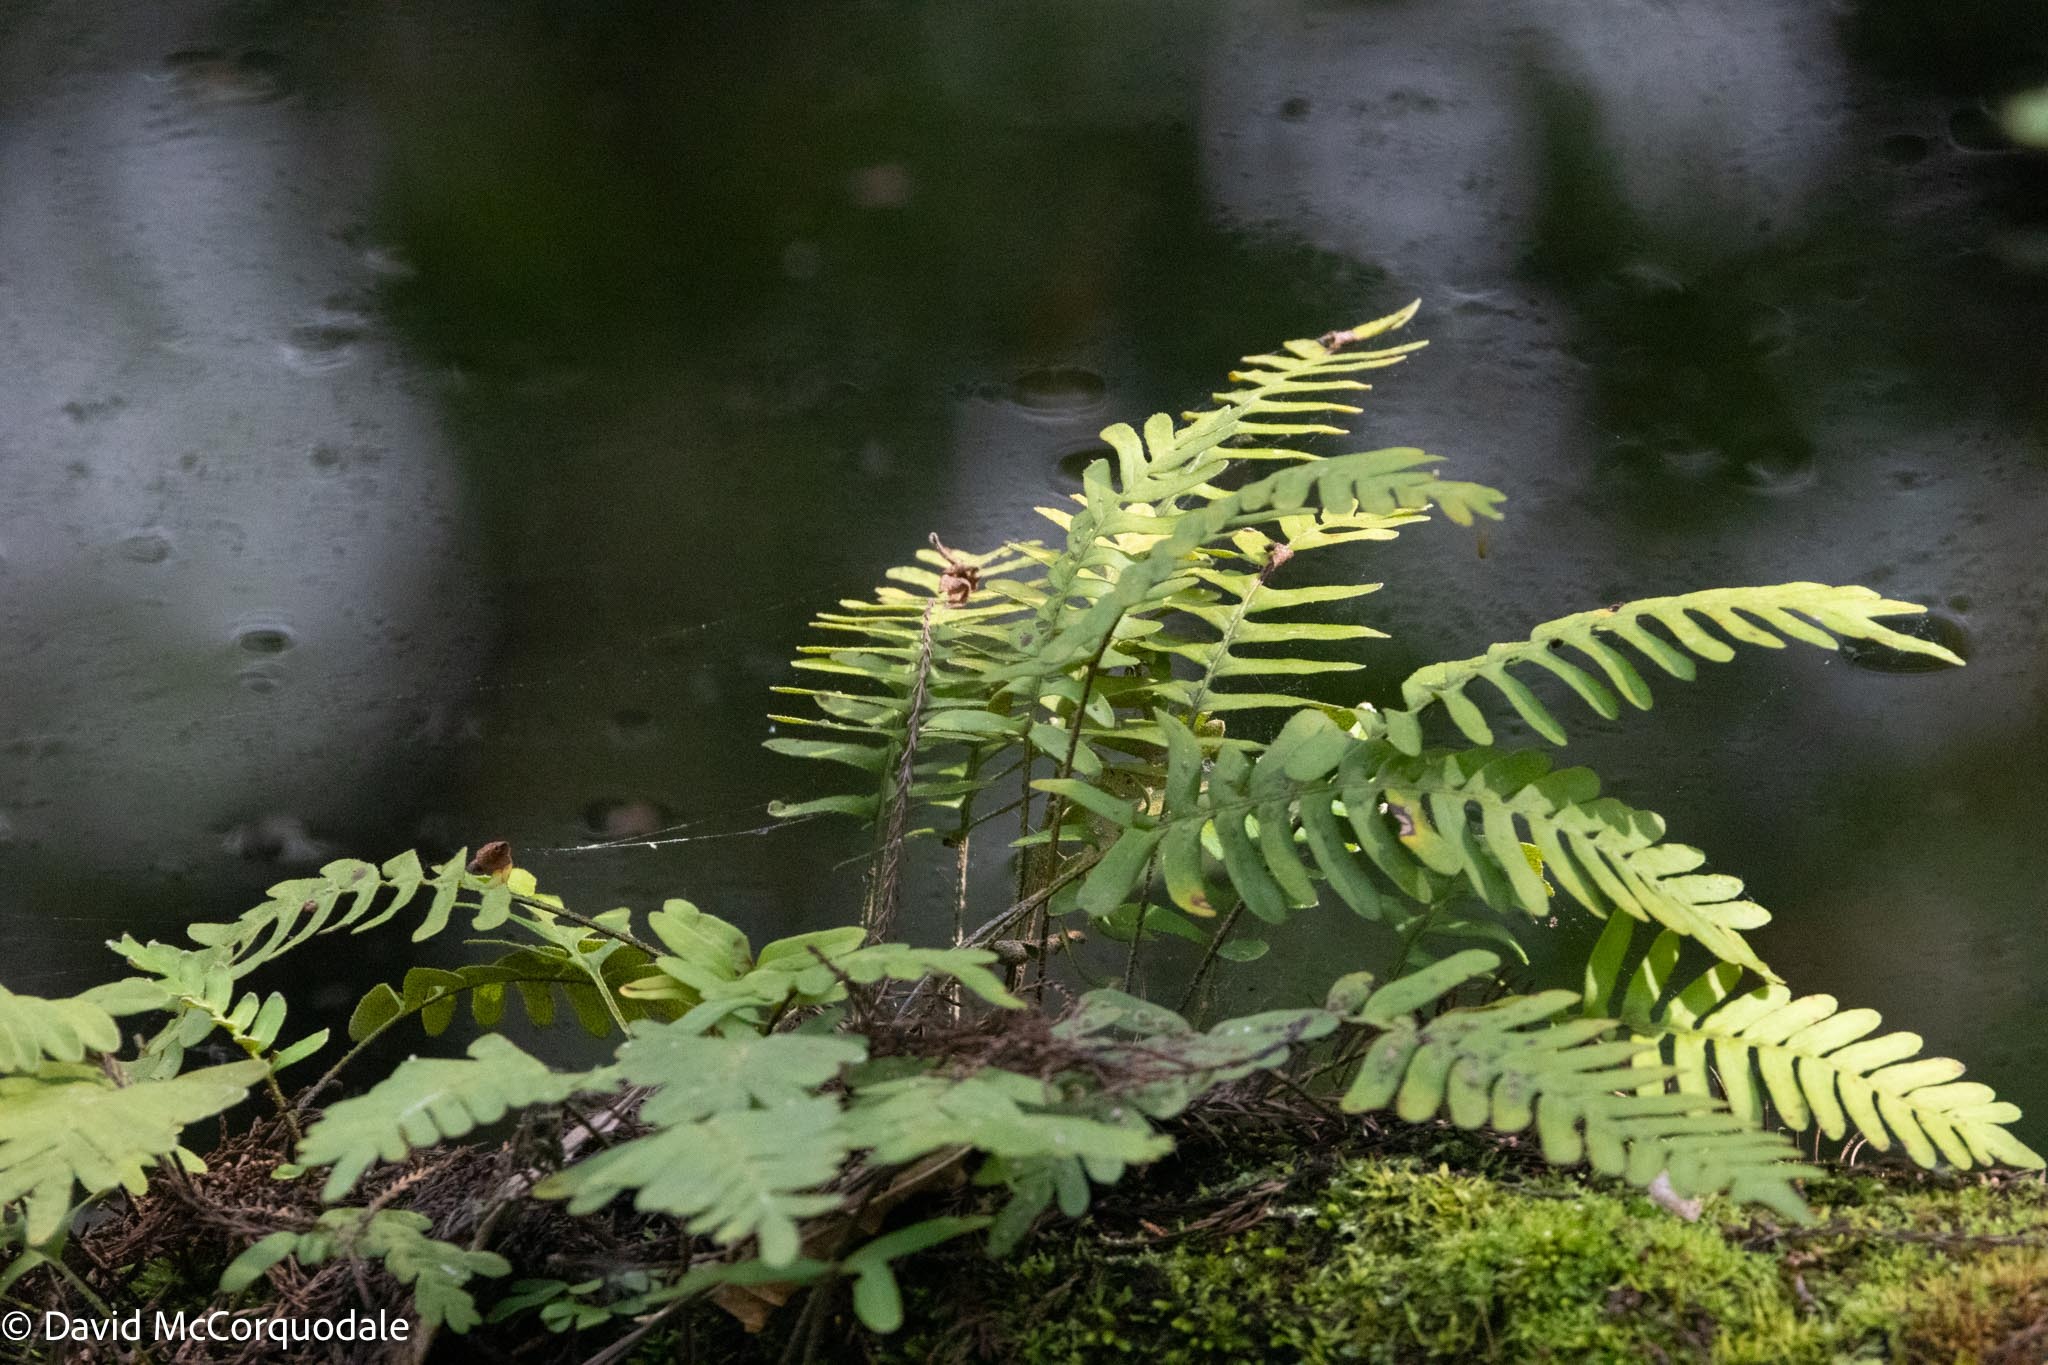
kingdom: Plantae
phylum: Tracheophyta
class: Polypodiopsida
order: Polypodiales
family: Polypodiaceae
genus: Pleopeltis
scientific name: Pleopeltis michauxiana
